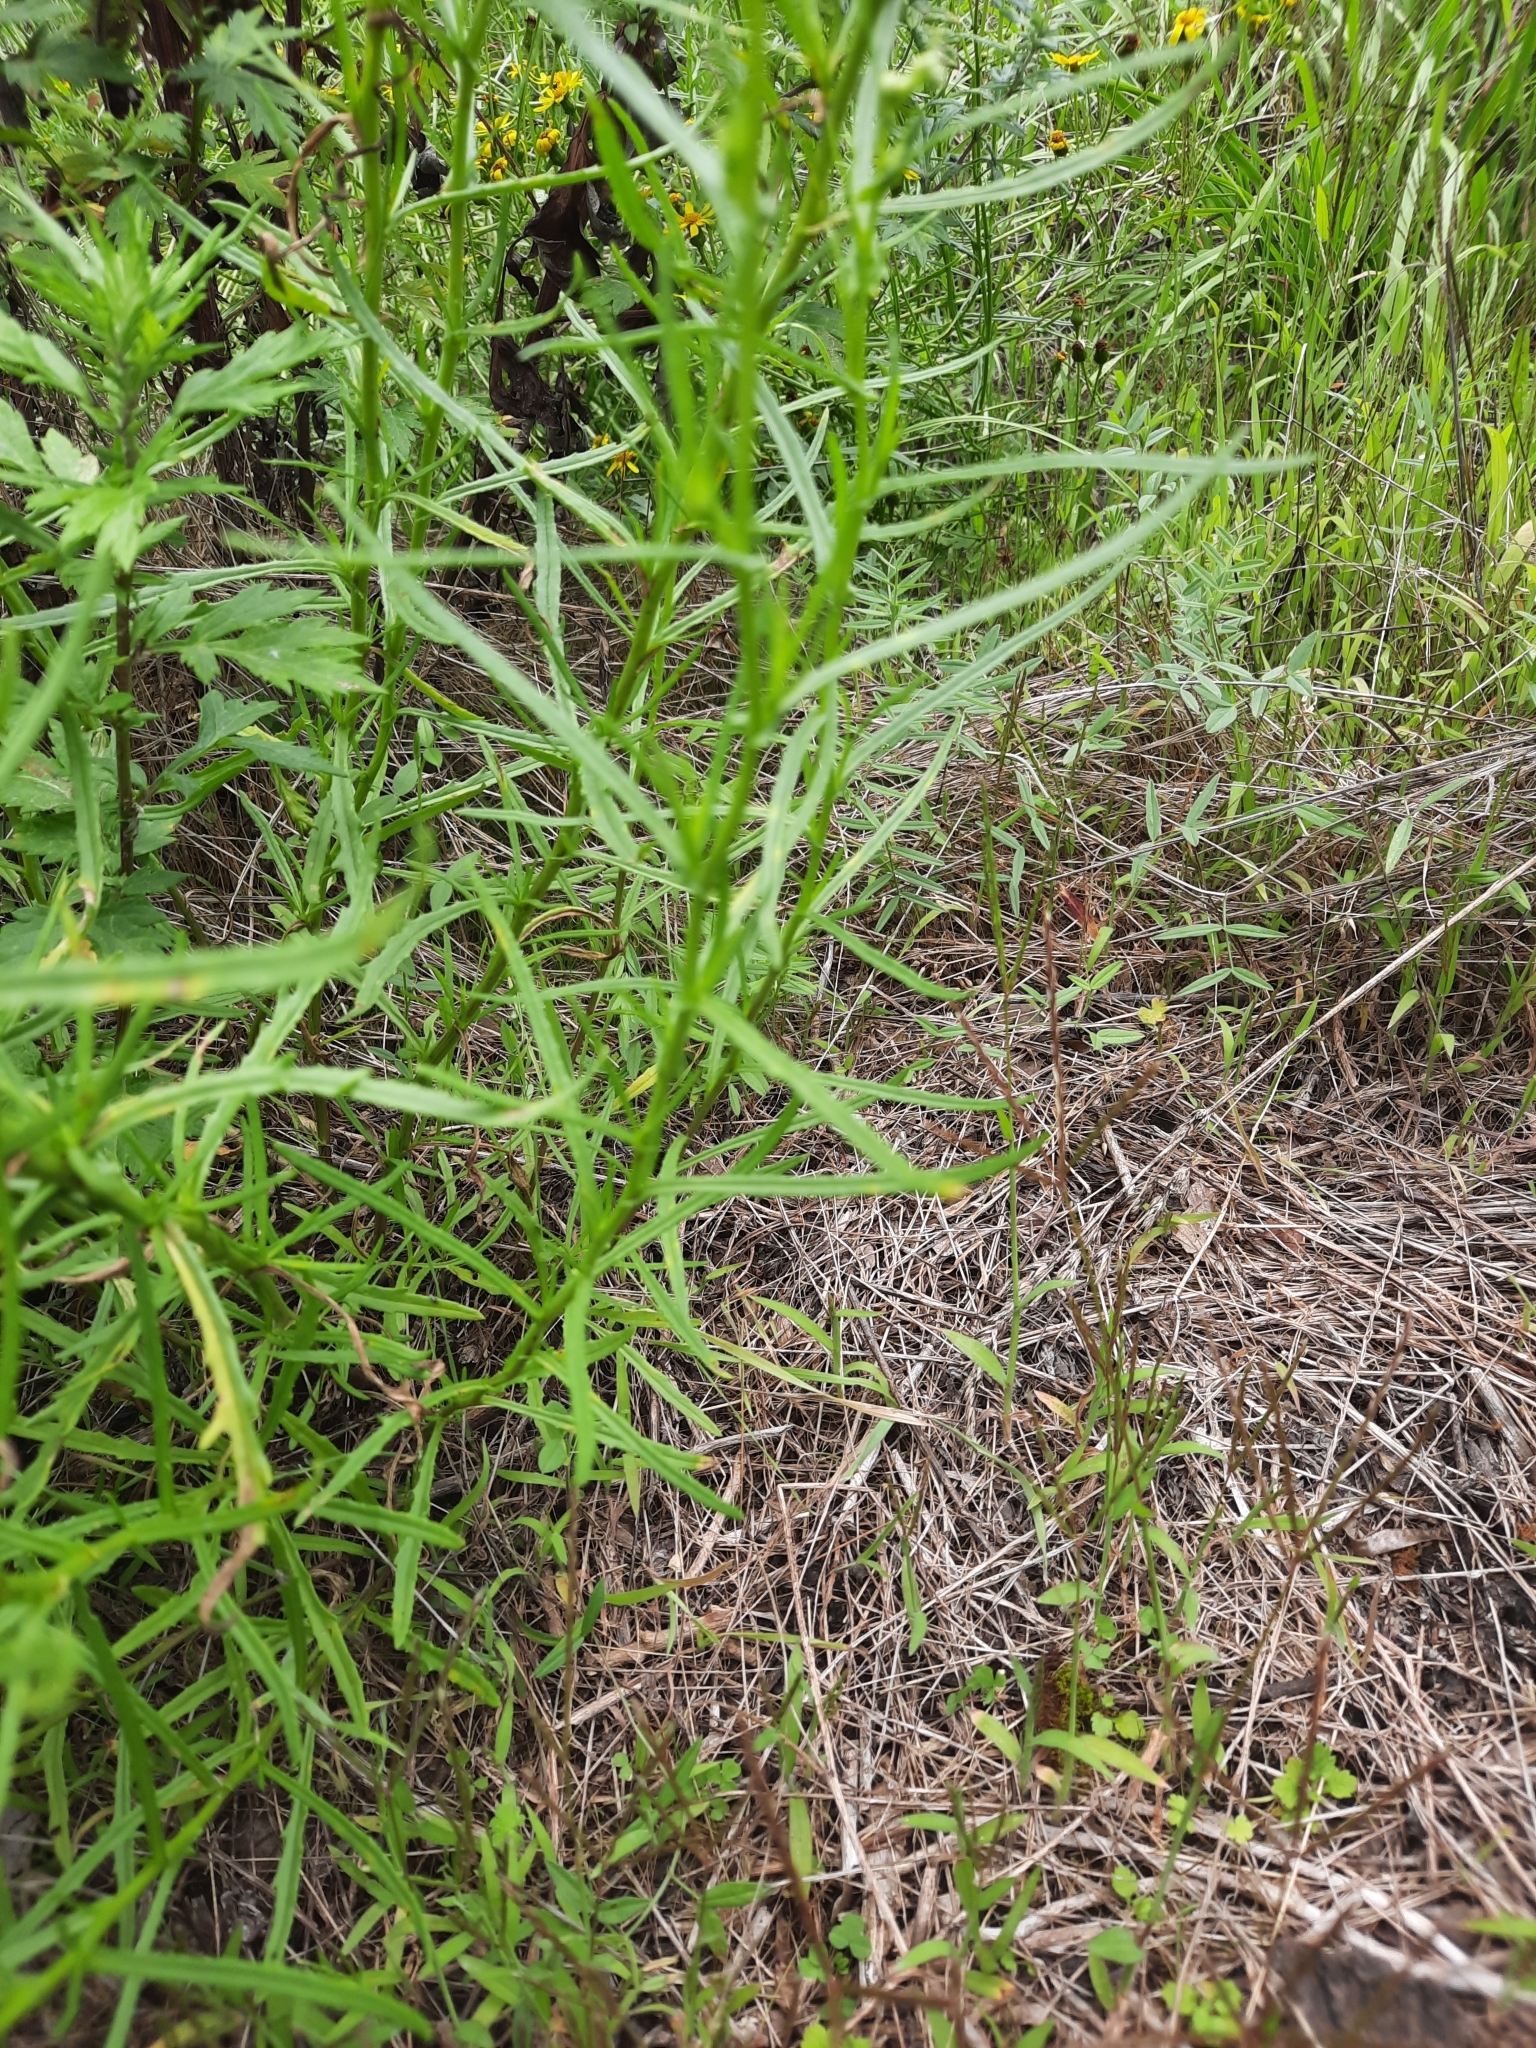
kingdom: Plantae
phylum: Tracheophyta
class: Magnoliopsida
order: Asterales
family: Asteraceae
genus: Senecio
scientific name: Senecio inaequidens
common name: Narrow-leaved ragwort
